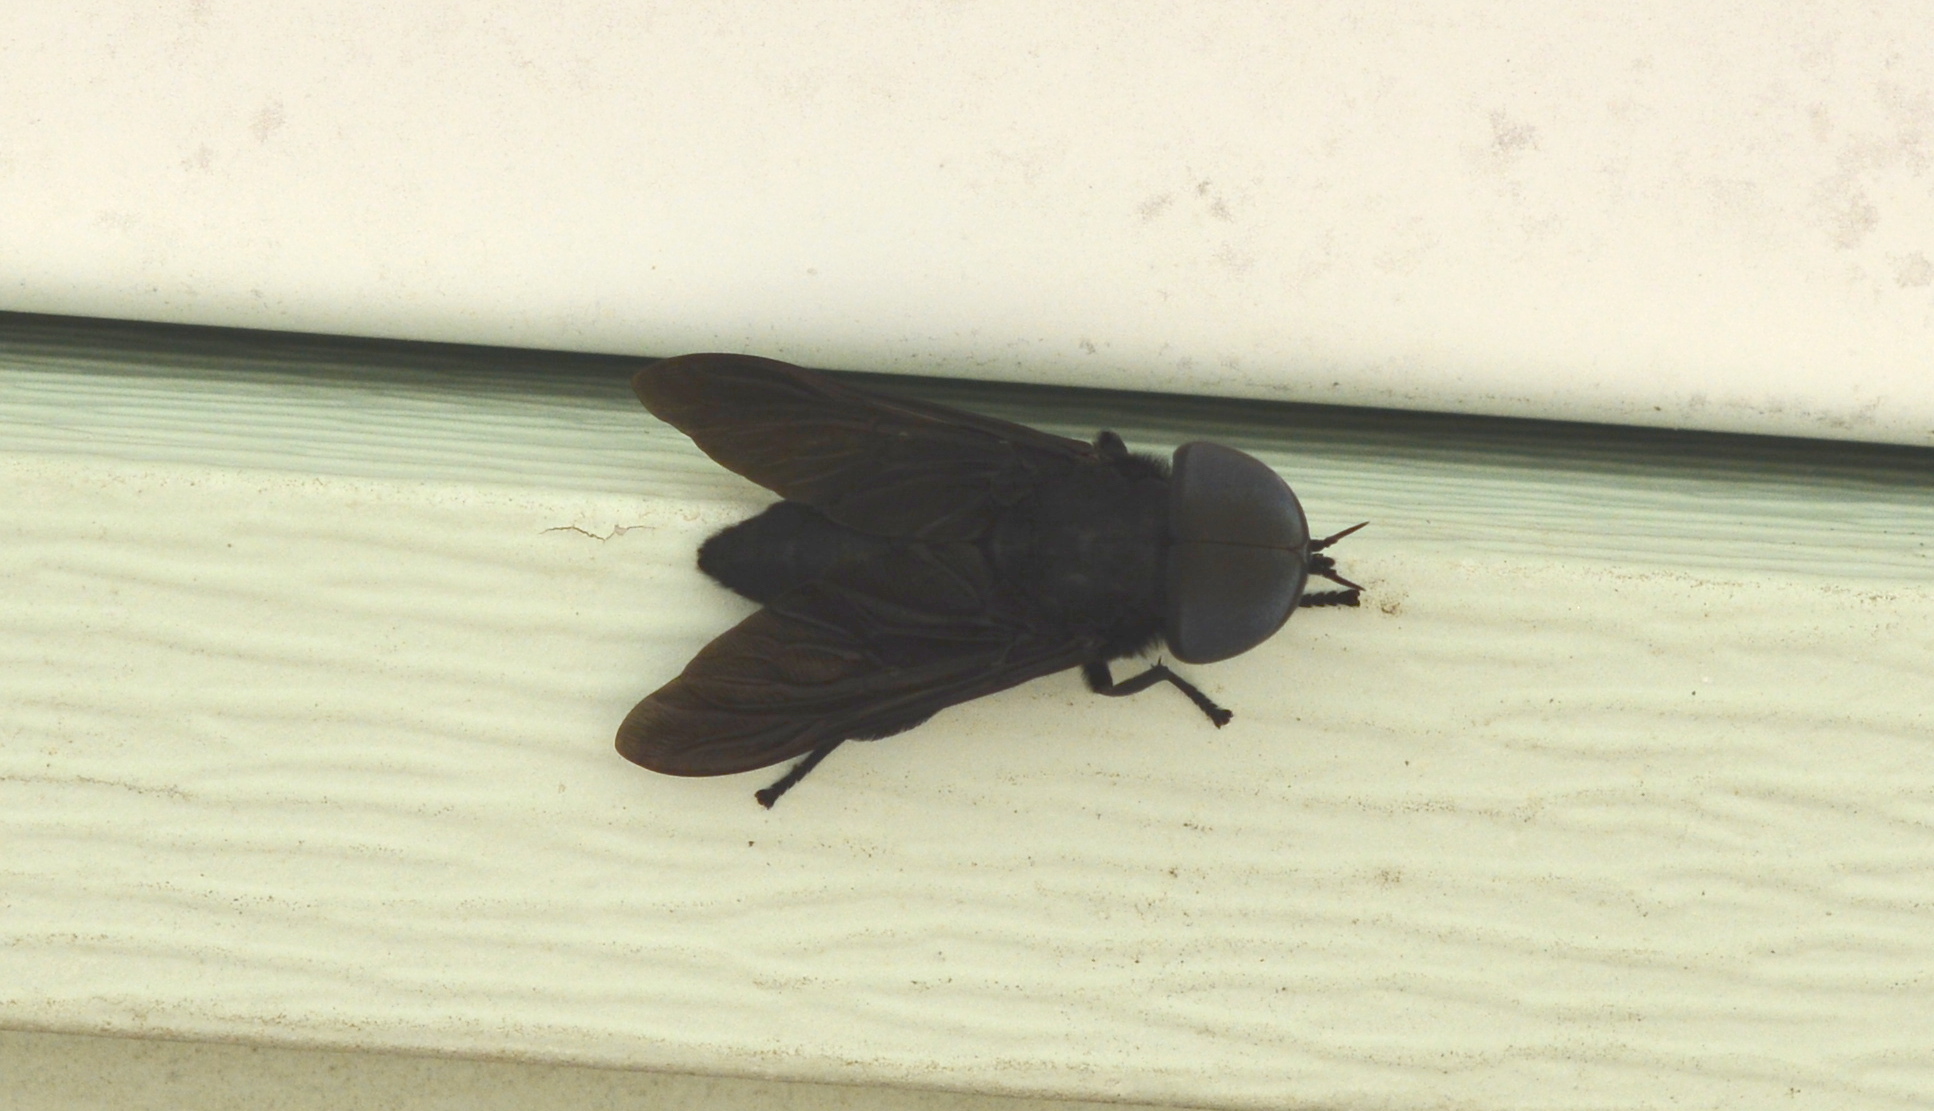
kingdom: Animalia
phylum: Arthropoda
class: Insecta
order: Diptera
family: Tabanidae
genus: Tabanus
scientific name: Tabanus atratus
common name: Black horse fly
